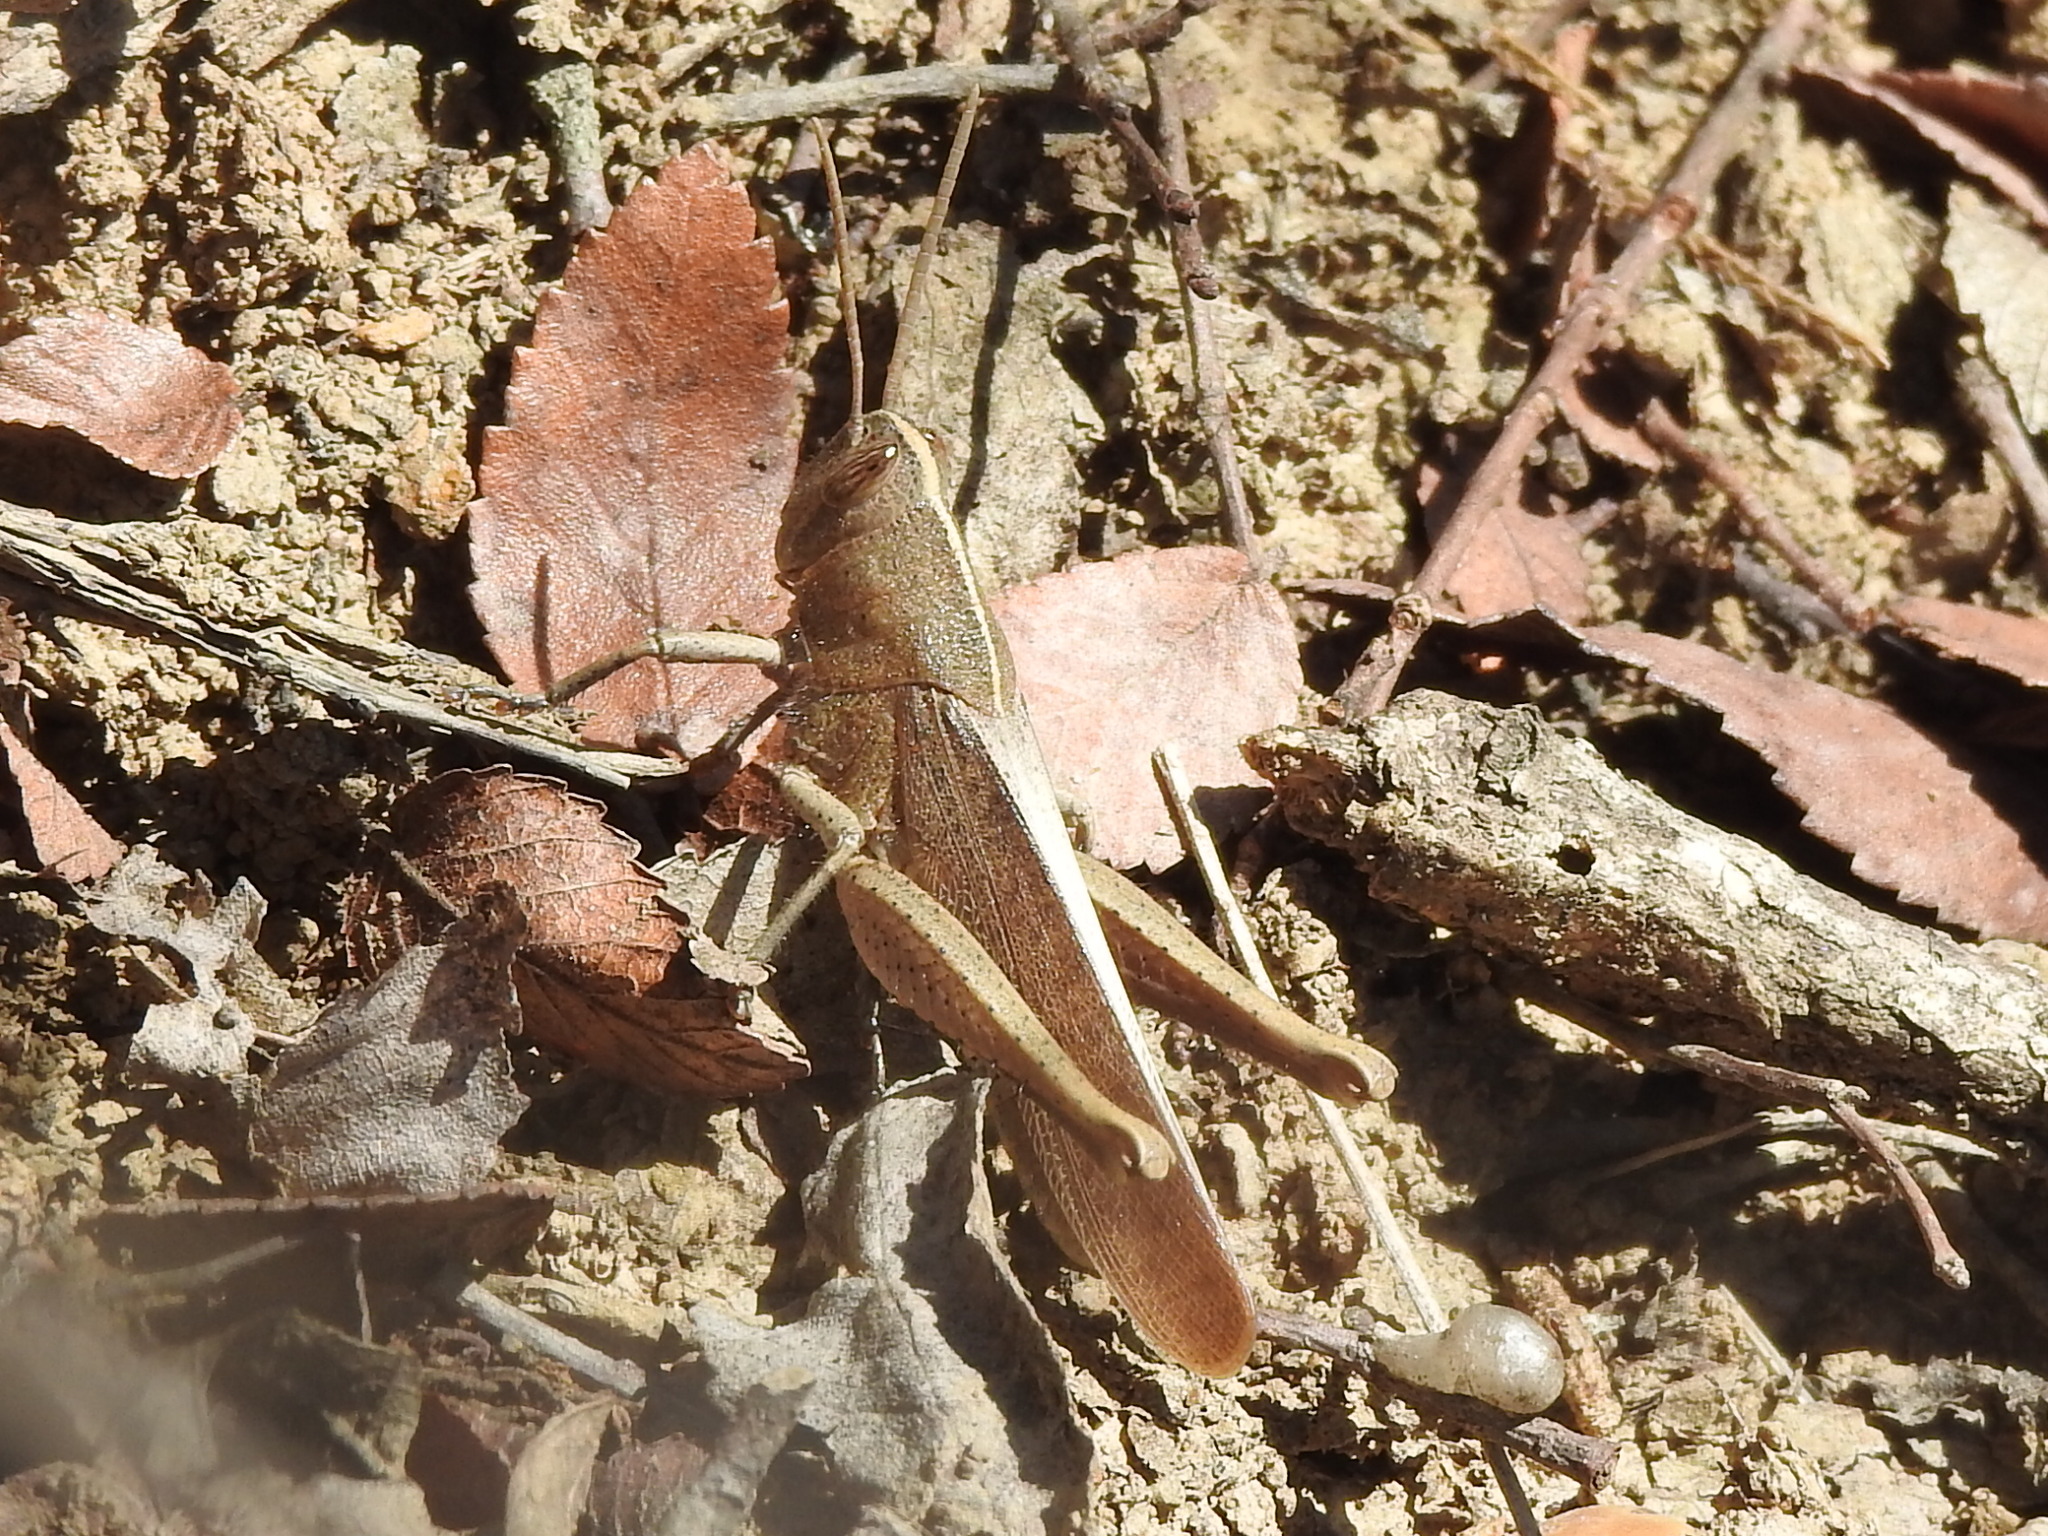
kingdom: Animalia
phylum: Arthropoda
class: Insecta
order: Orthoptera
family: Acrididae
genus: Schistocerca
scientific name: Schistocerca damnifica
